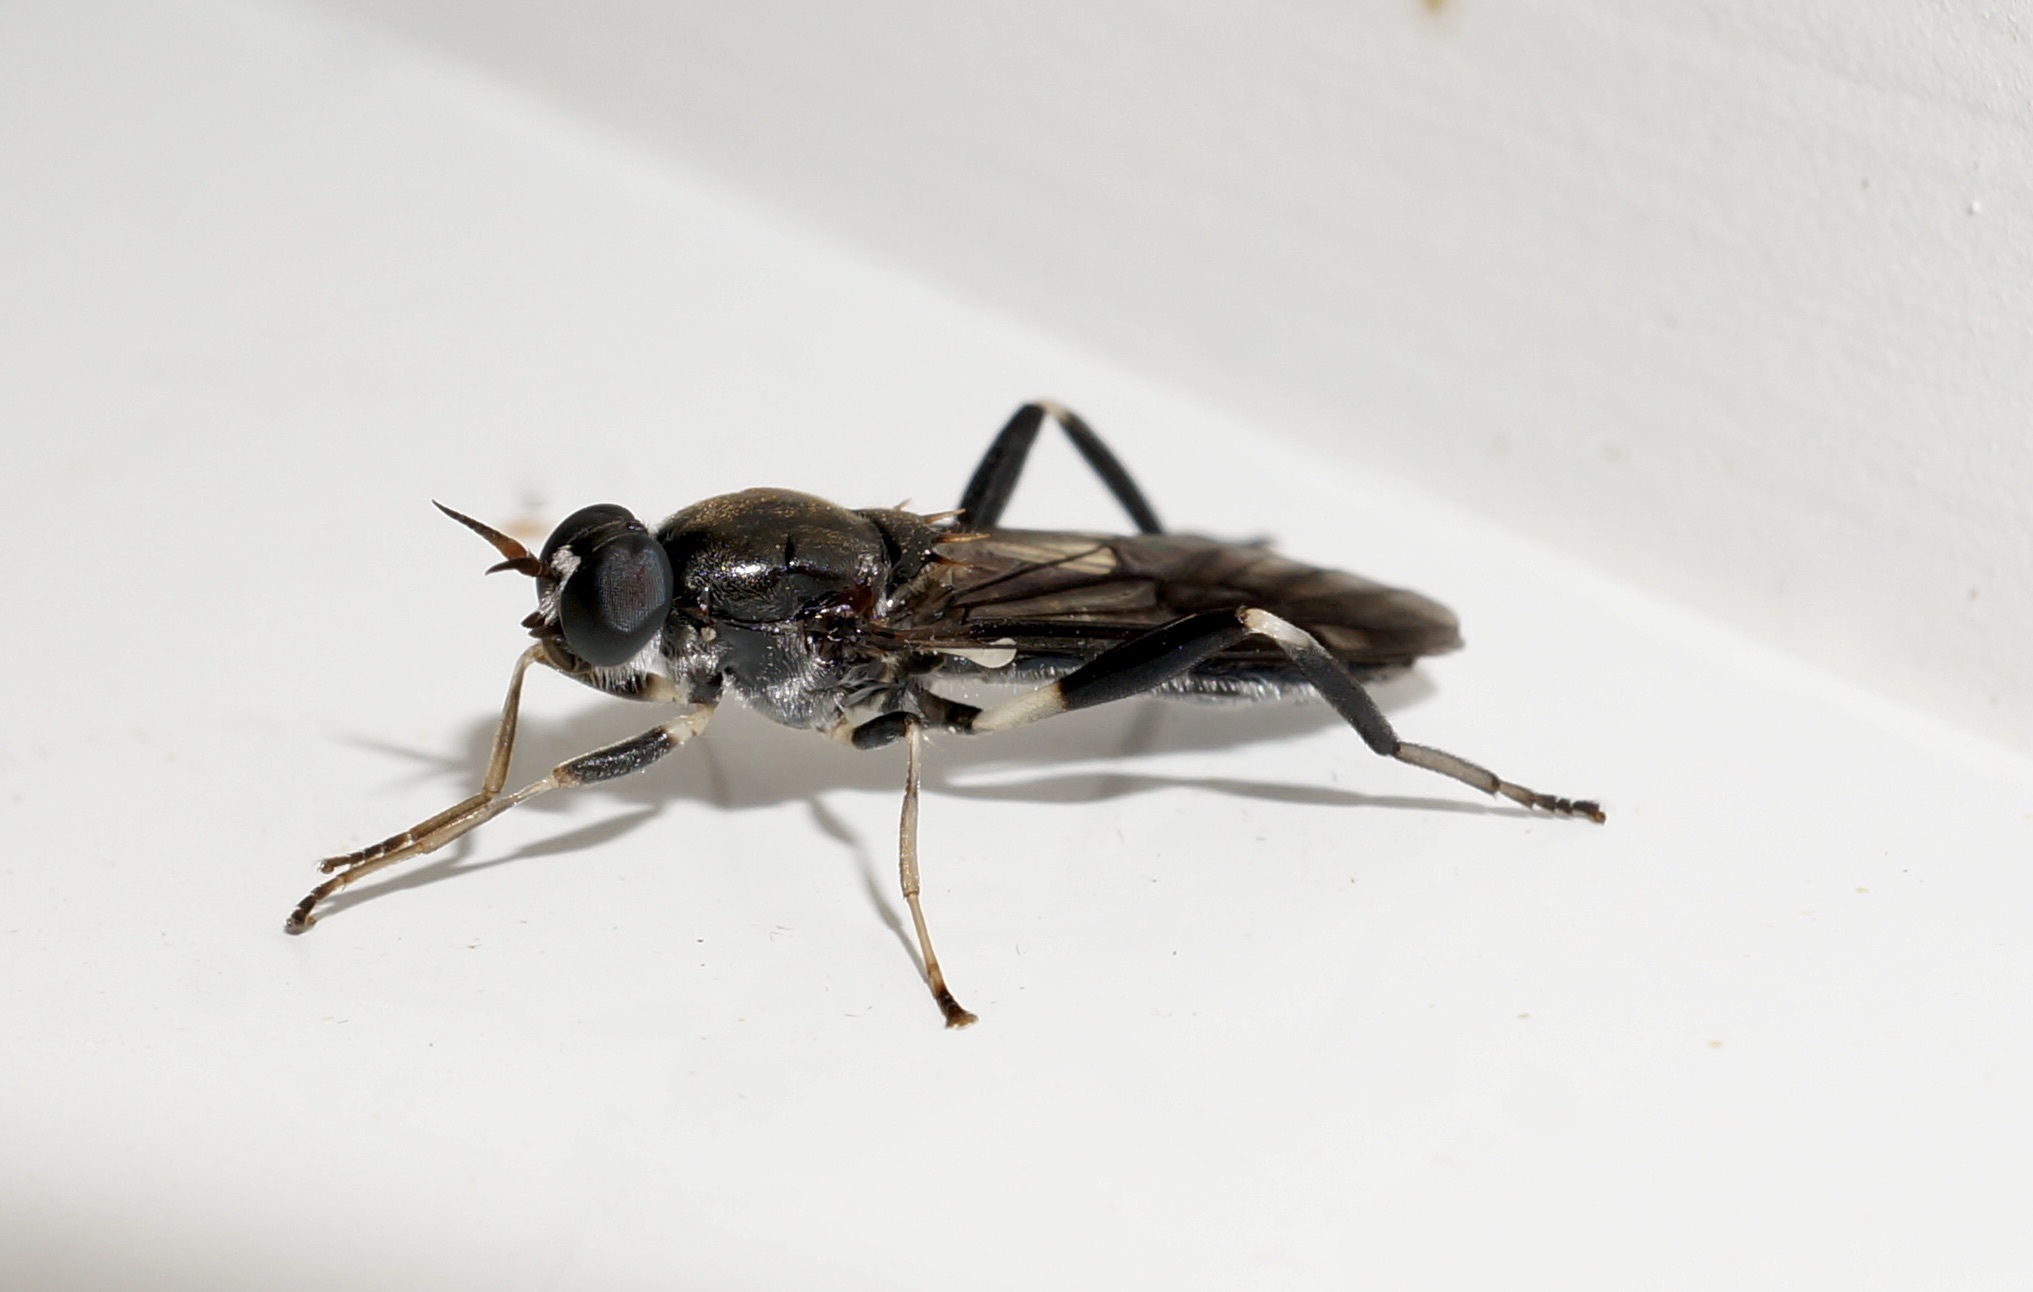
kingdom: Animalia
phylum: Arthropoda
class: Insecta
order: Diptera
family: Stratiomyidae
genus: Exaireta
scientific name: Exaireta spinigera
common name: Blue soldier fly
